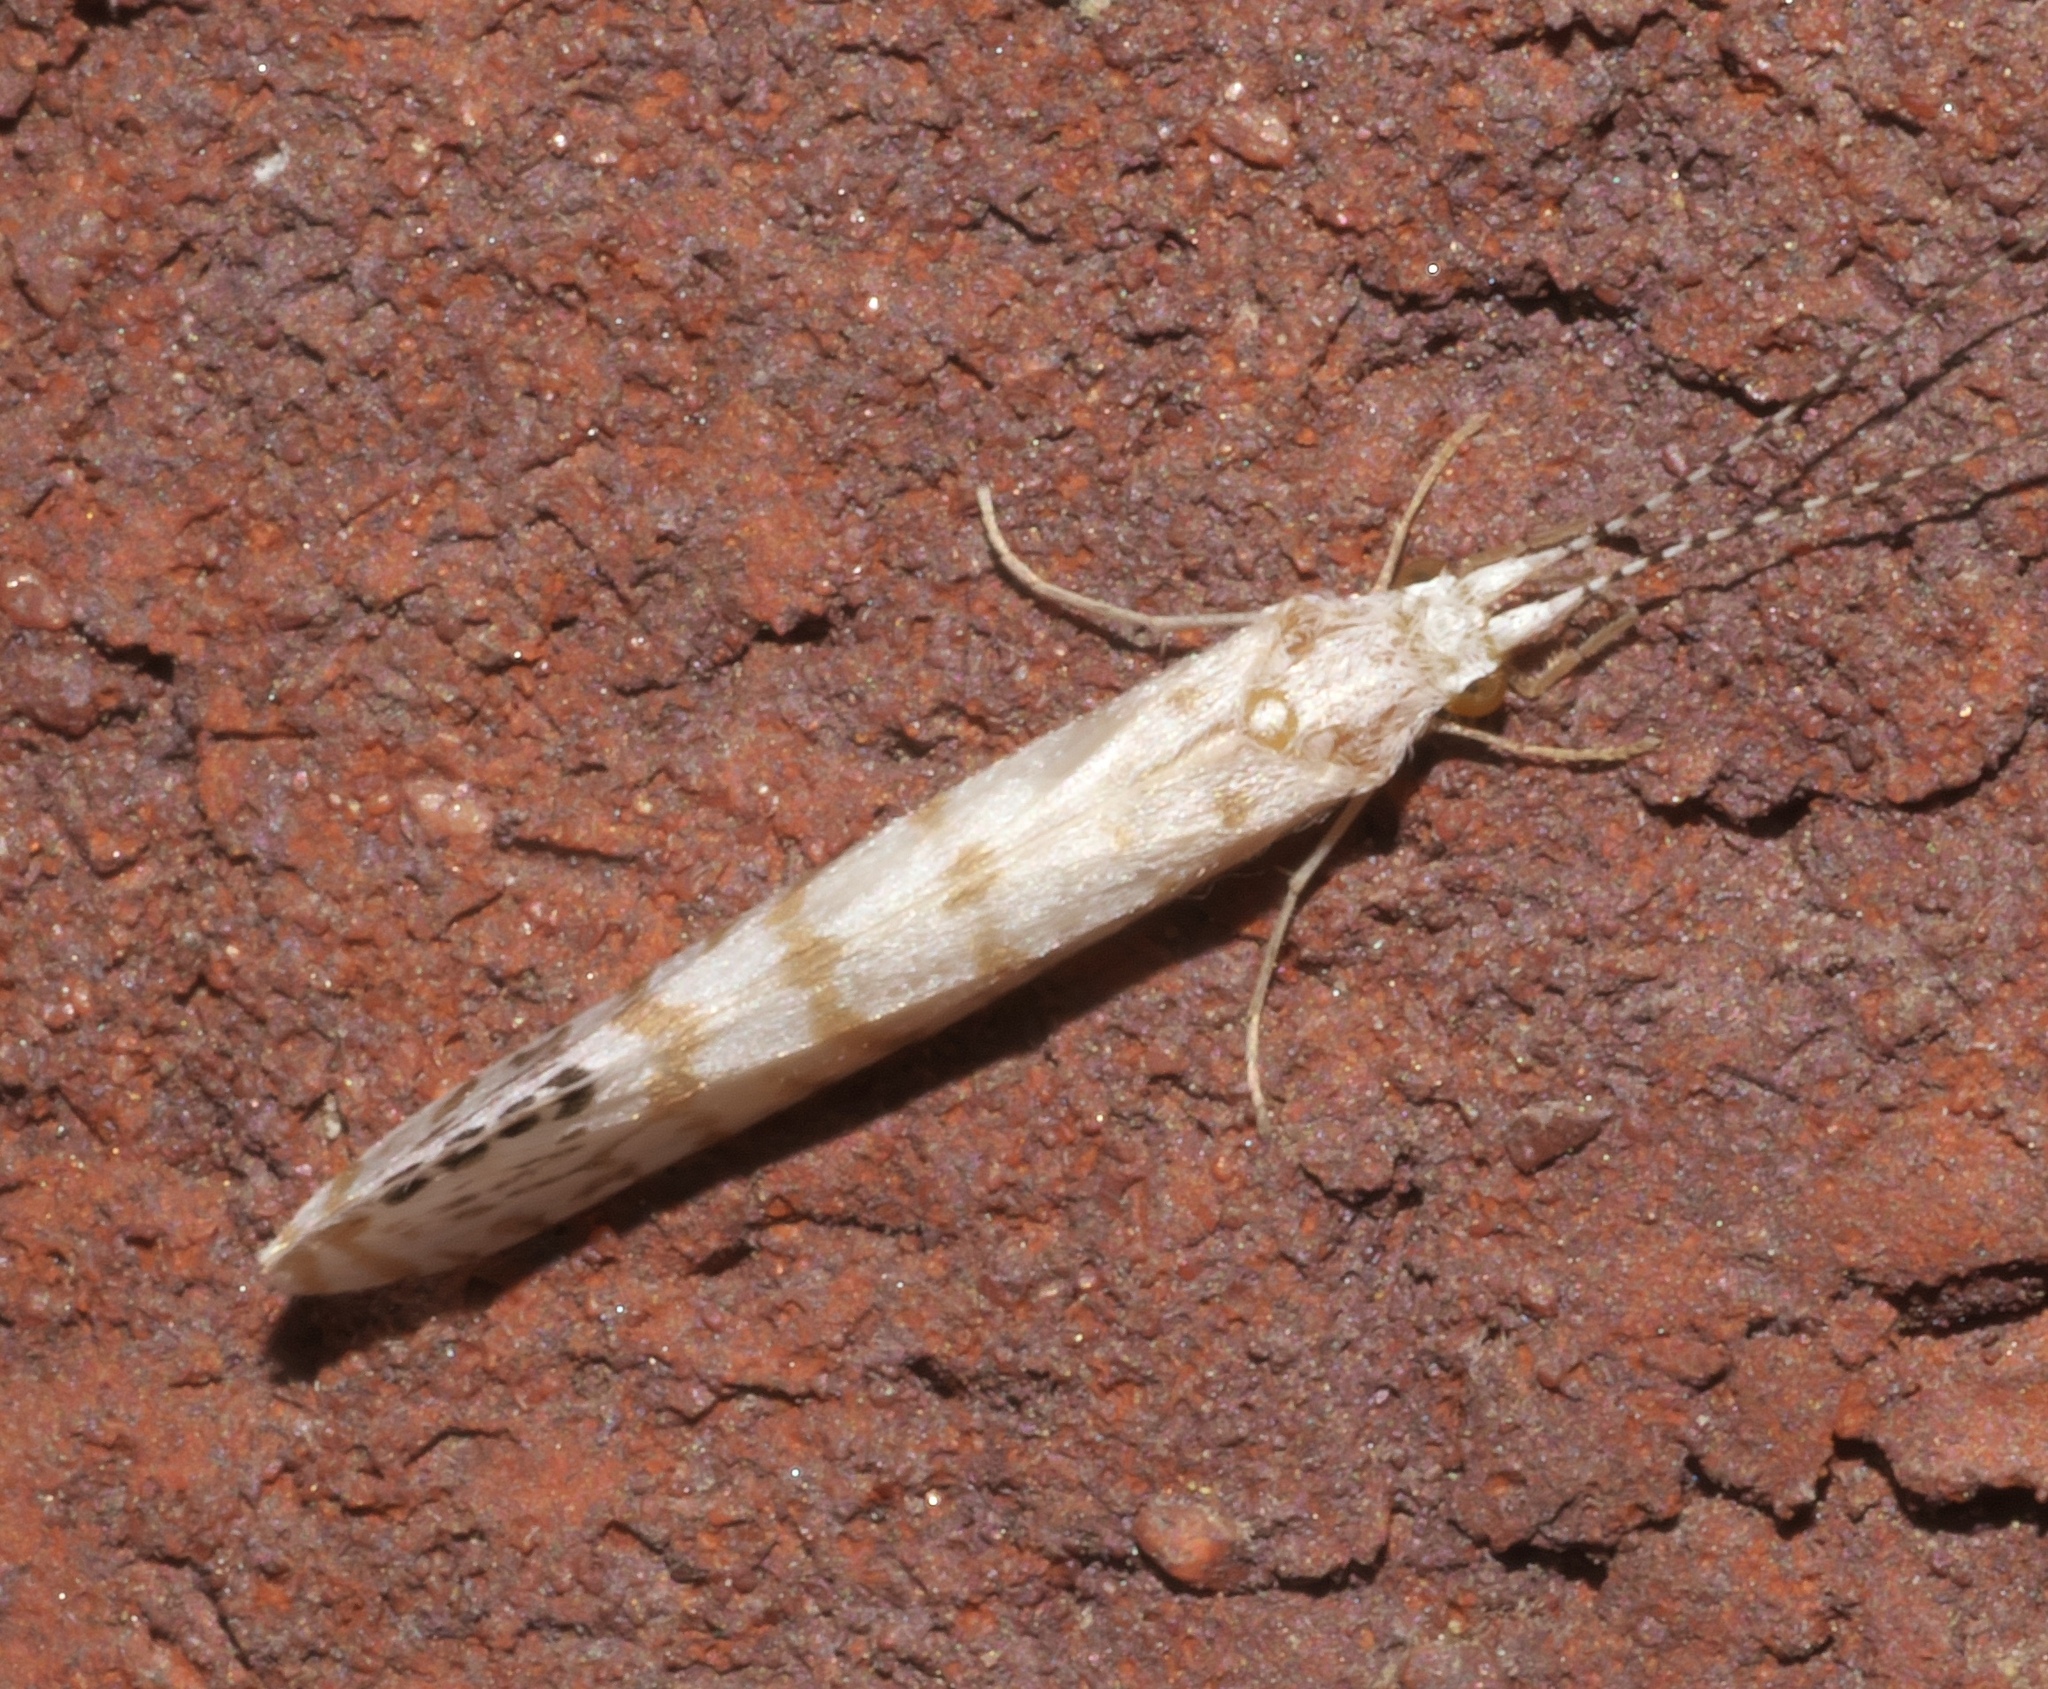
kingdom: Animalia
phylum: Arthropoda
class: Insecta
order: Trichoptera
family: Leptoceridae
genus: Nectopsyche
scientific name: Nectopsyche exquisita
